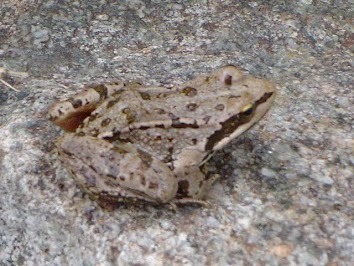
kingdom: Animalia
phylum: Chordata
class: Amphibia
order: Anura
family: Ranidae
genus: Rana
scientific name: Rana macrocnemis
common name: Banded frog
